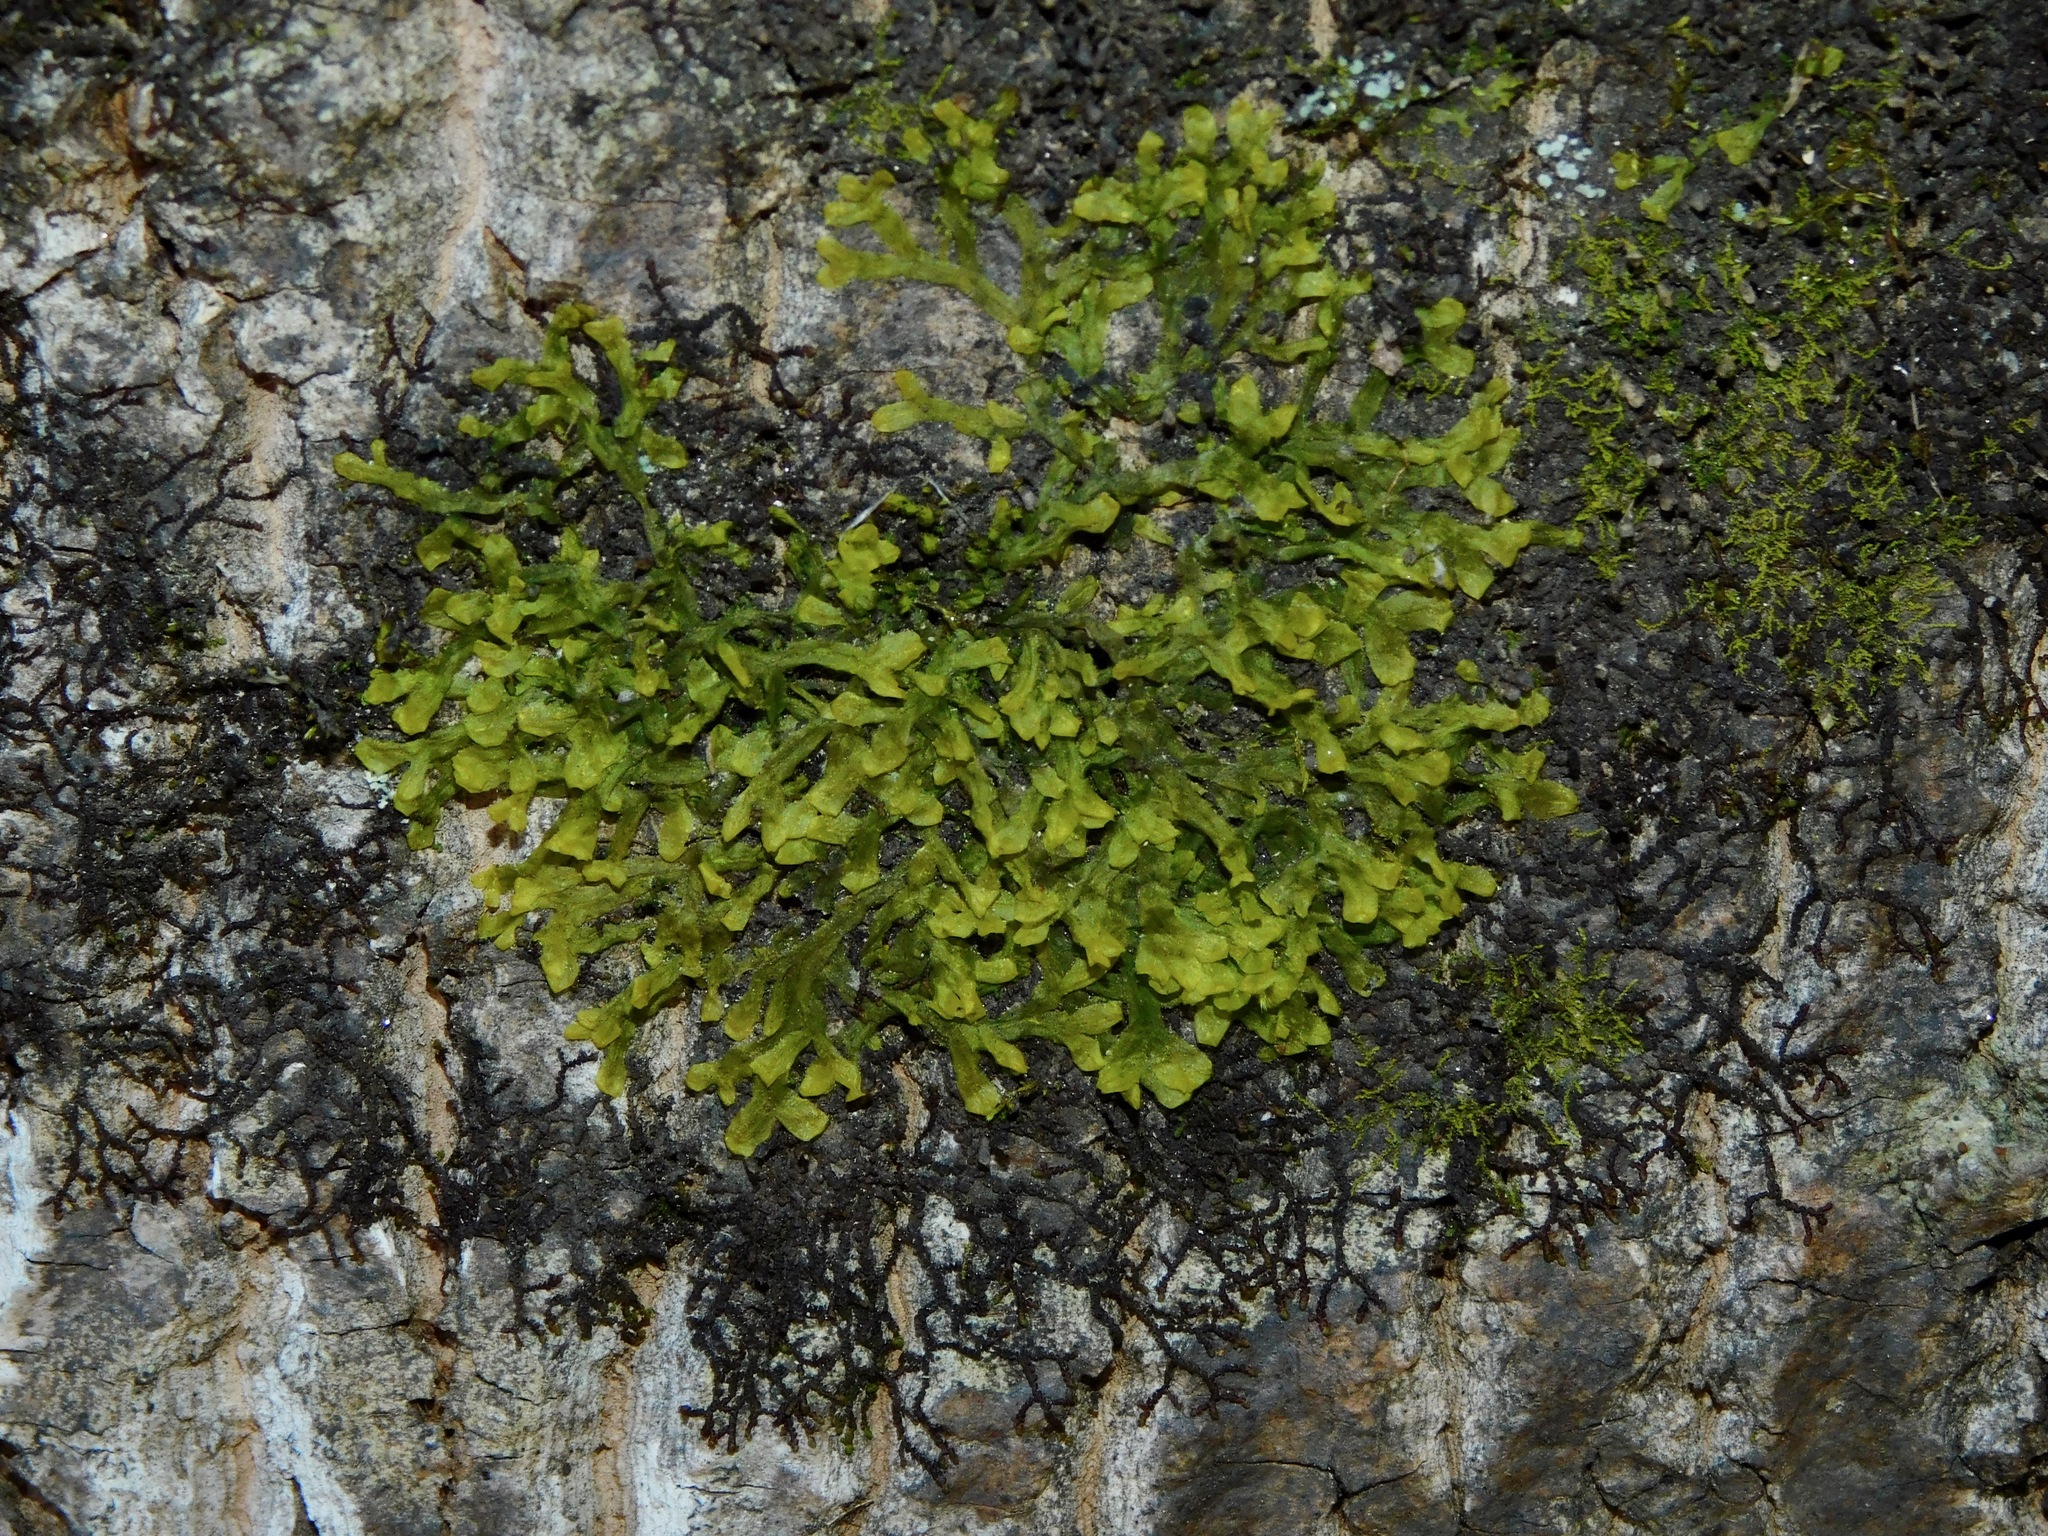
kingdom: Plantae
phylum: Marchantiophyta
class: Jungermanniopsida
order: Metzgeriales
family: Metzgeriaceae
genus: Metzgeria
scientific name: Metzgeria furcata
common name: Forked veilwort
